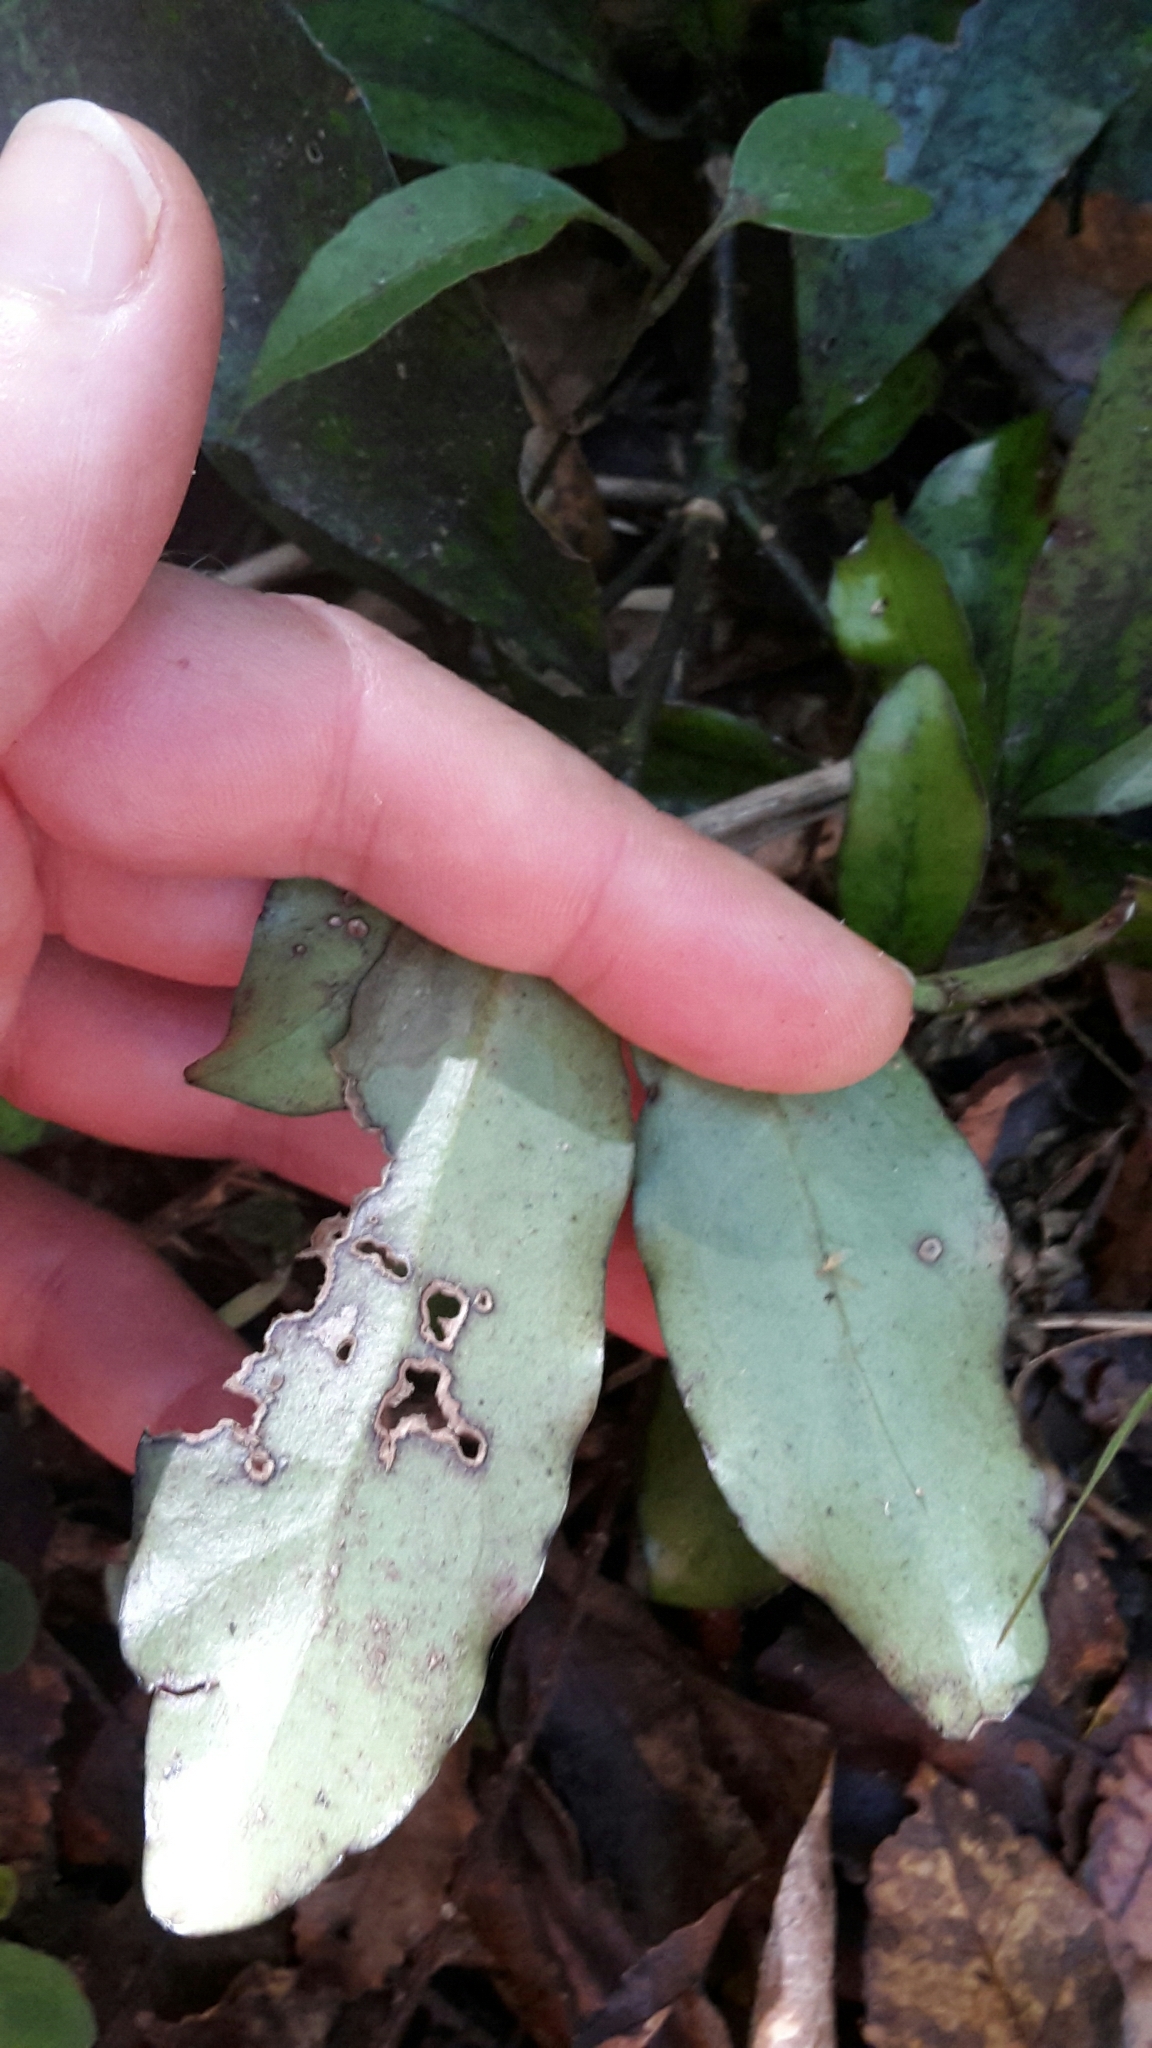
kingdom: Plantae
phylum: Tracheophyta
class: Magnoliopsida
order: Asterales
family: Alseuosmiaceae
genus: Alseuosmia
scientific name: Alseuosmia pusilla
